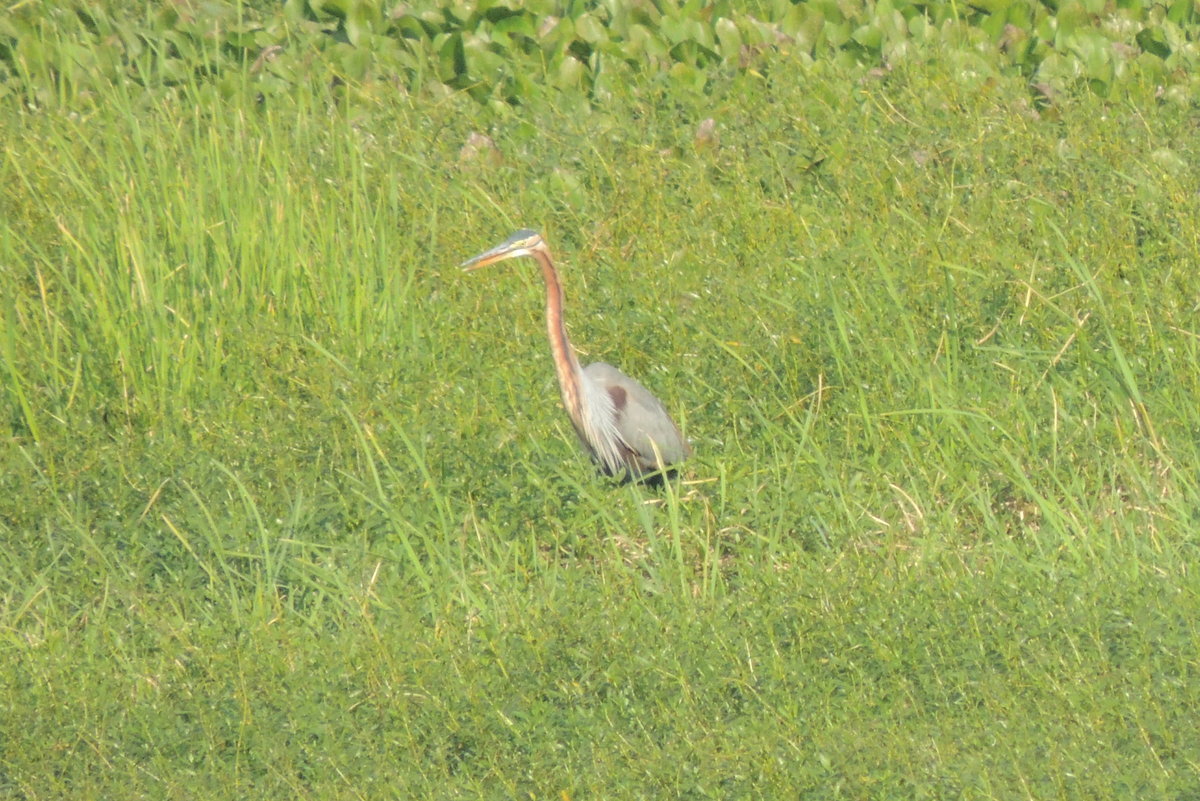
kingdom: Animalia
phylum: Chordata
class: Aves
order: Pelecaniformes
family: Ardeidae
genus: Ardea
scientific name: Ardea purpurea
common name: Purple heron
